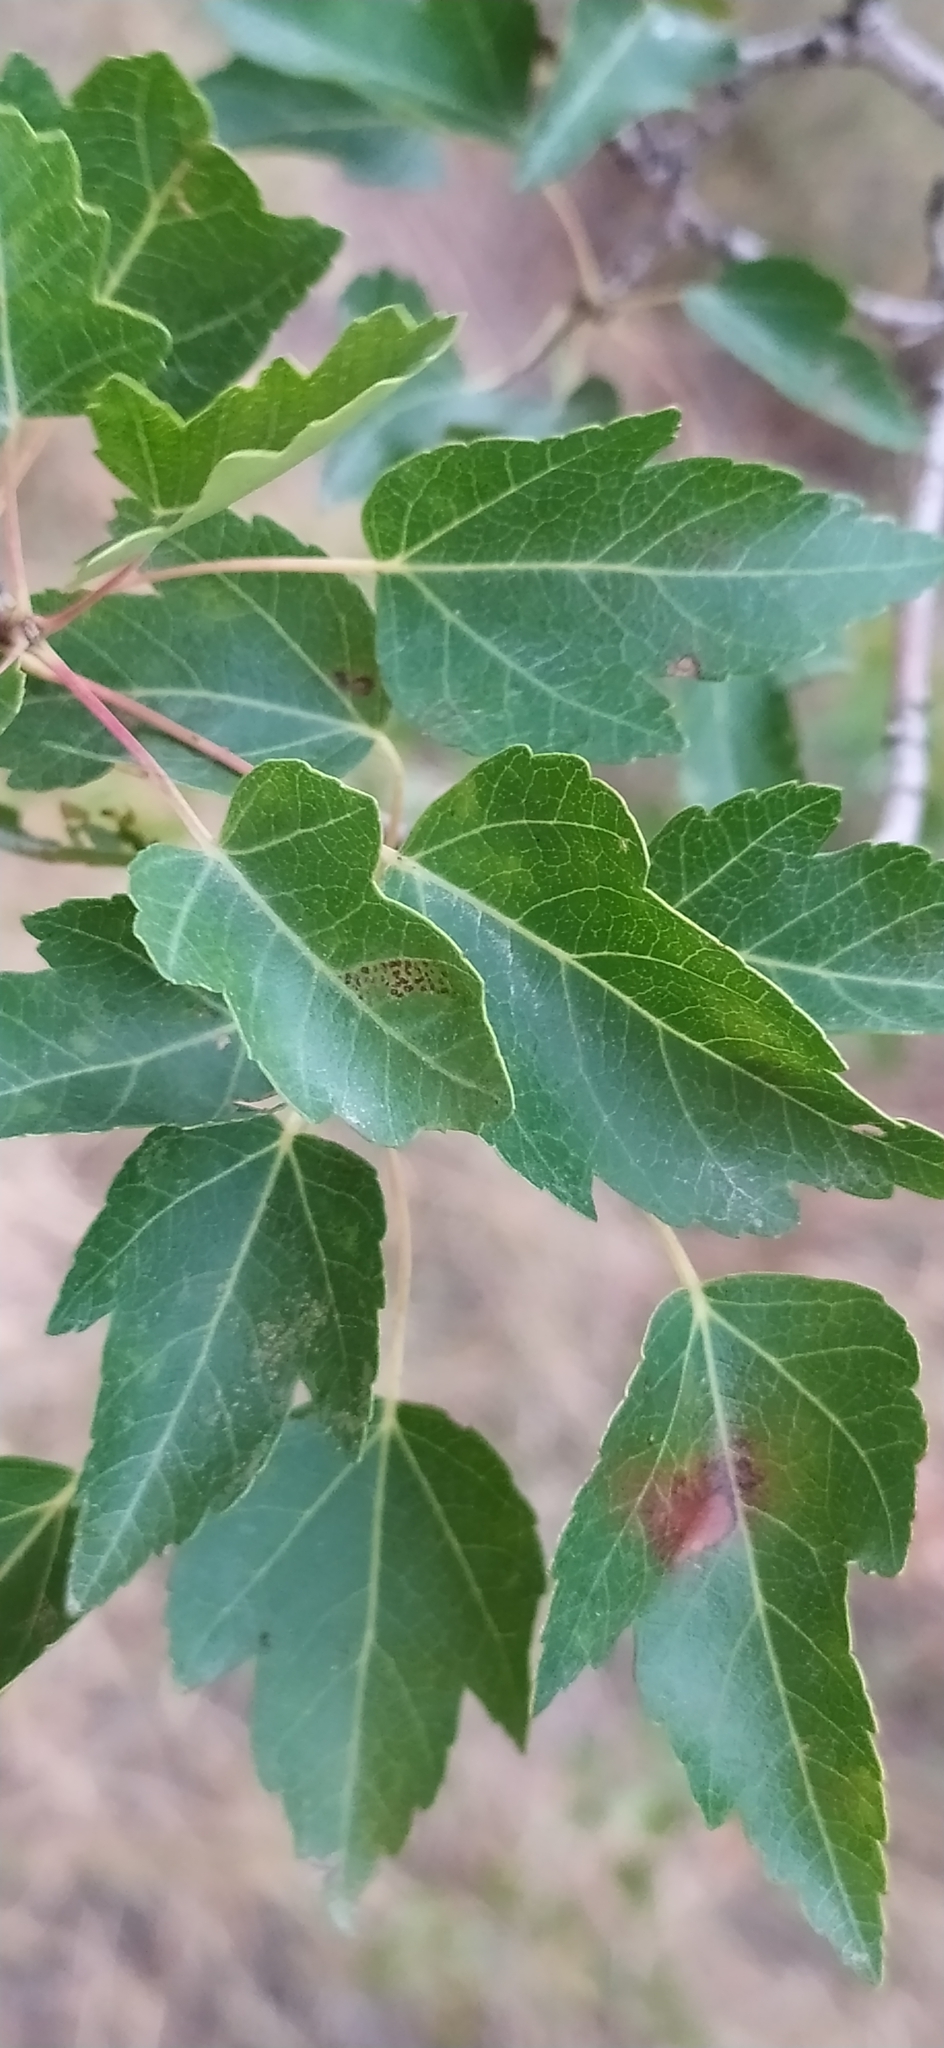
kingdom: Plantae
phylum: Tracheophyta
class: Magnoliopsida
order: Sapindales
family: Sapindaceae
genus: Acer
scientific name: Acer tataricum
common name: Tartar maple
